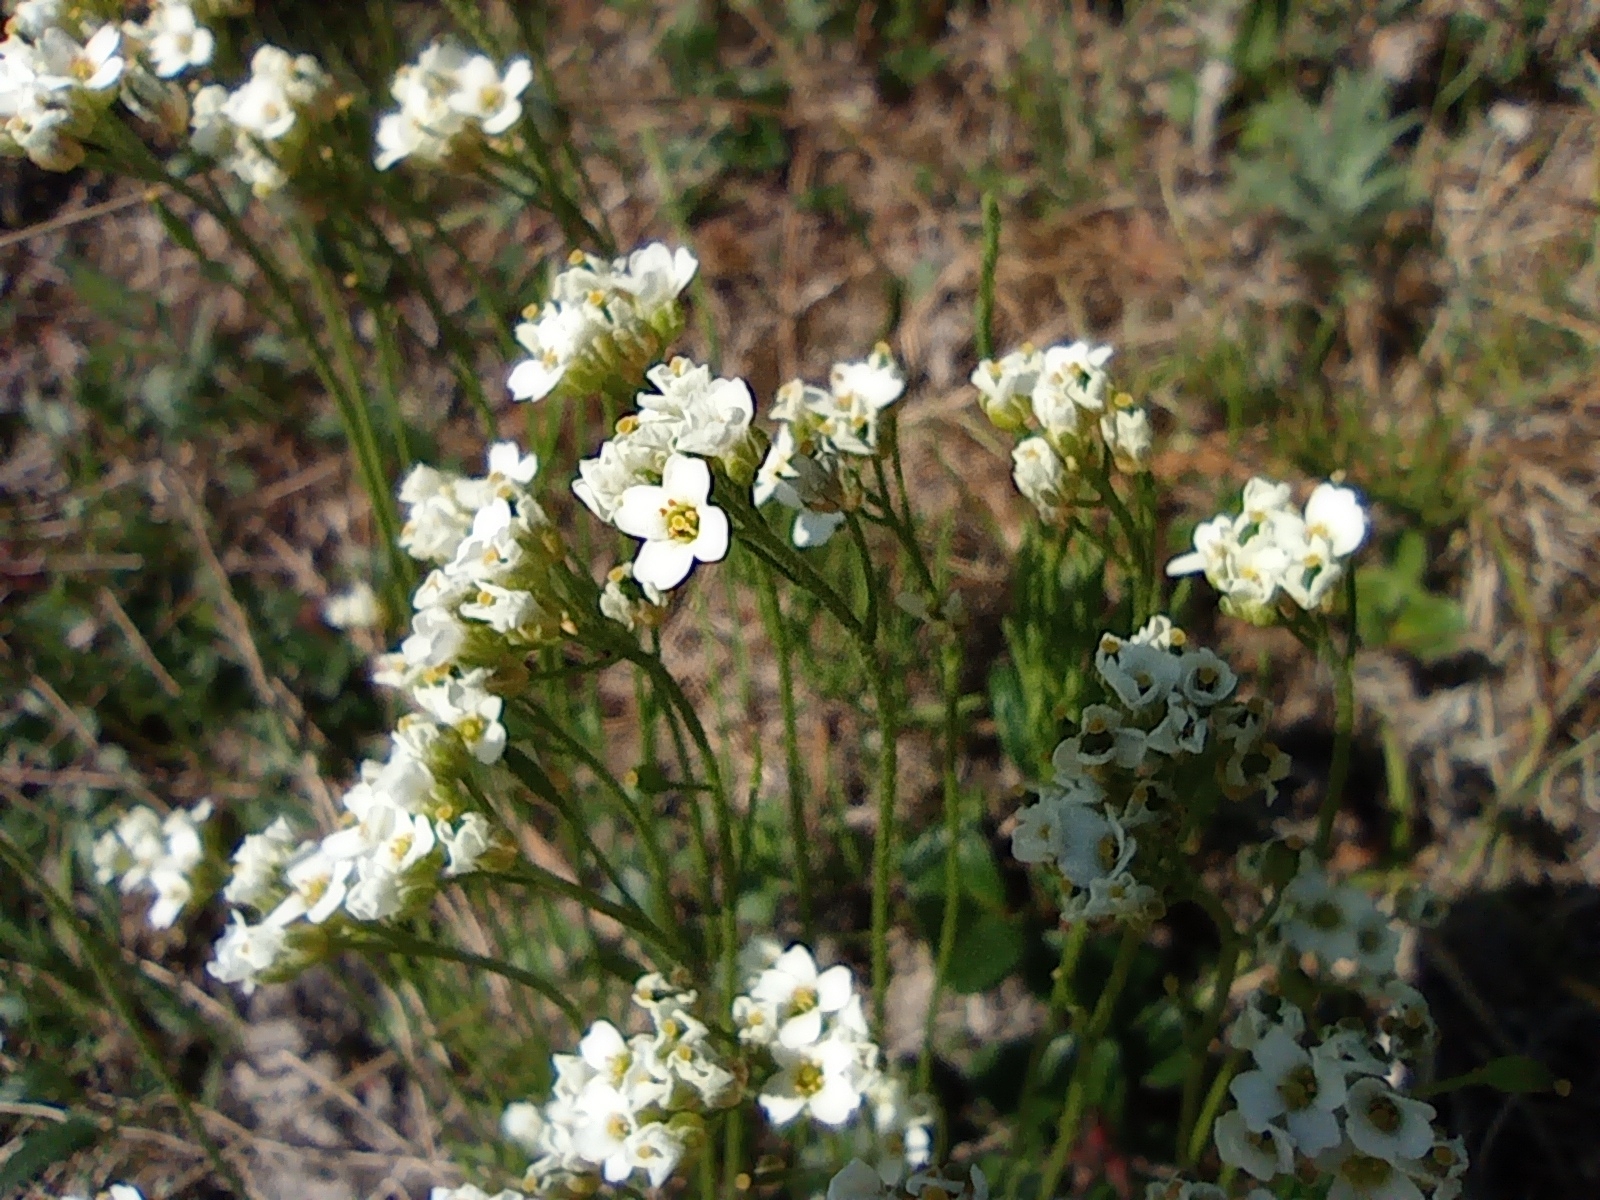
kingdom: Plantae
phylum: Tracheophyta
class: Magnoliopsida
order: Brassicales
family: Brassicaceae
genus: Arabidopsis
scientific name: Arabidopsis lyrata
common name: Lyrate rockcress
